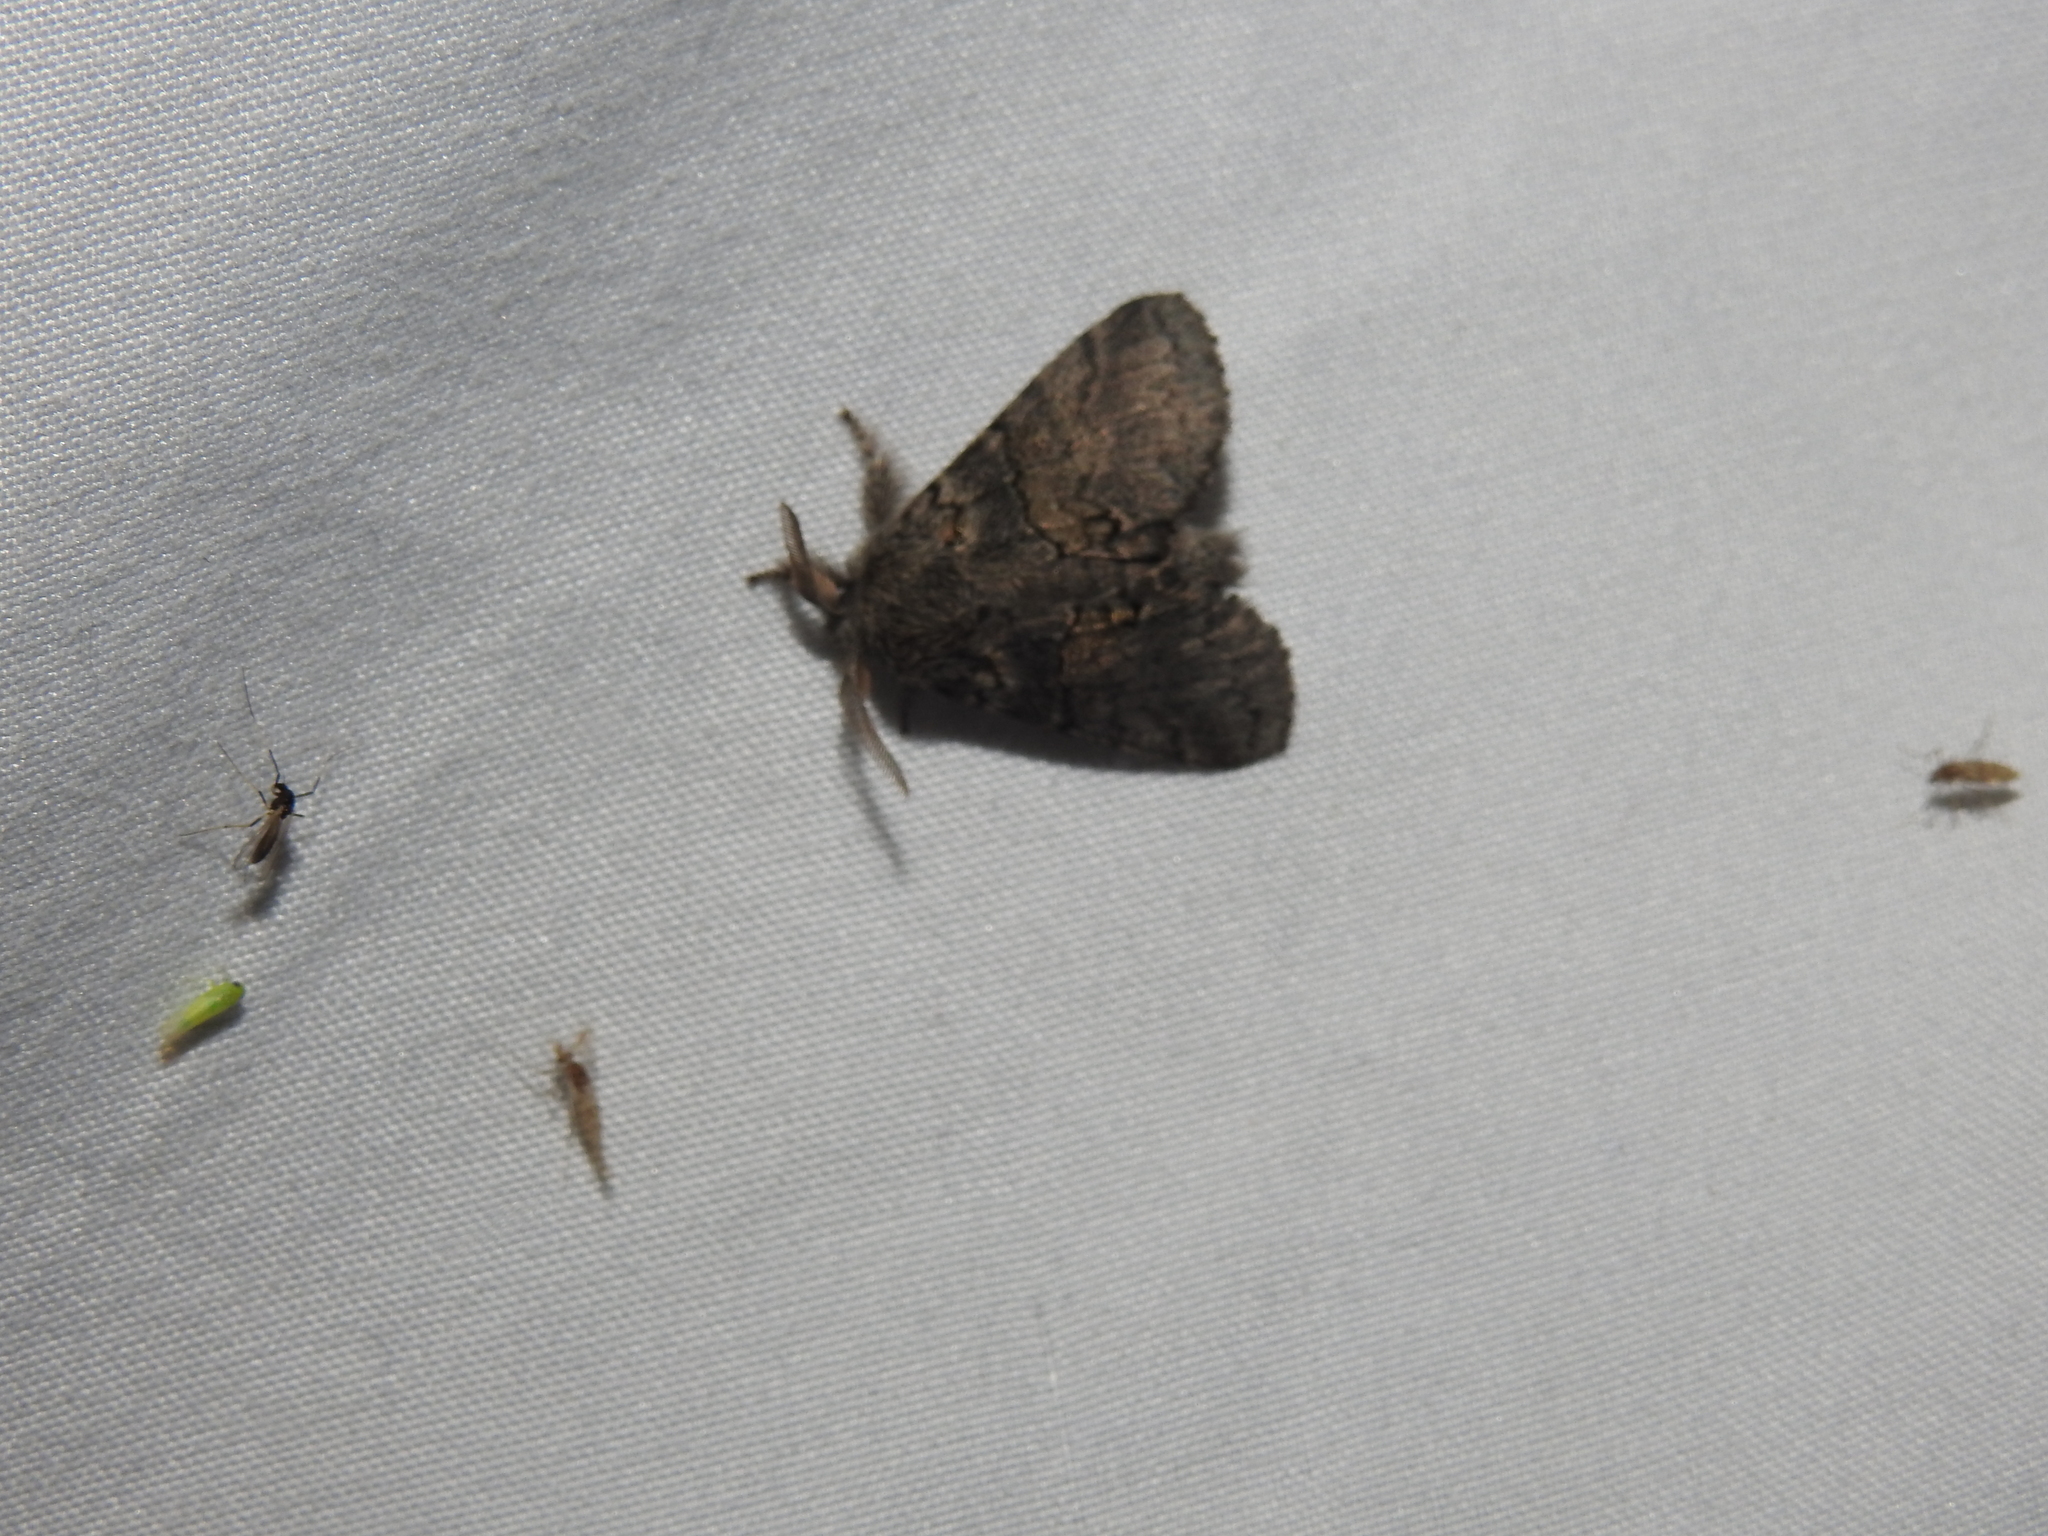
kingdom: Animalia
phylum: Arthropoda
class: Insecta
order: Lepidoptera
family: Notodontidae
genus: Gluphisia
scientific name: Gluphisia septentrionis
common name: Common gluphisia
